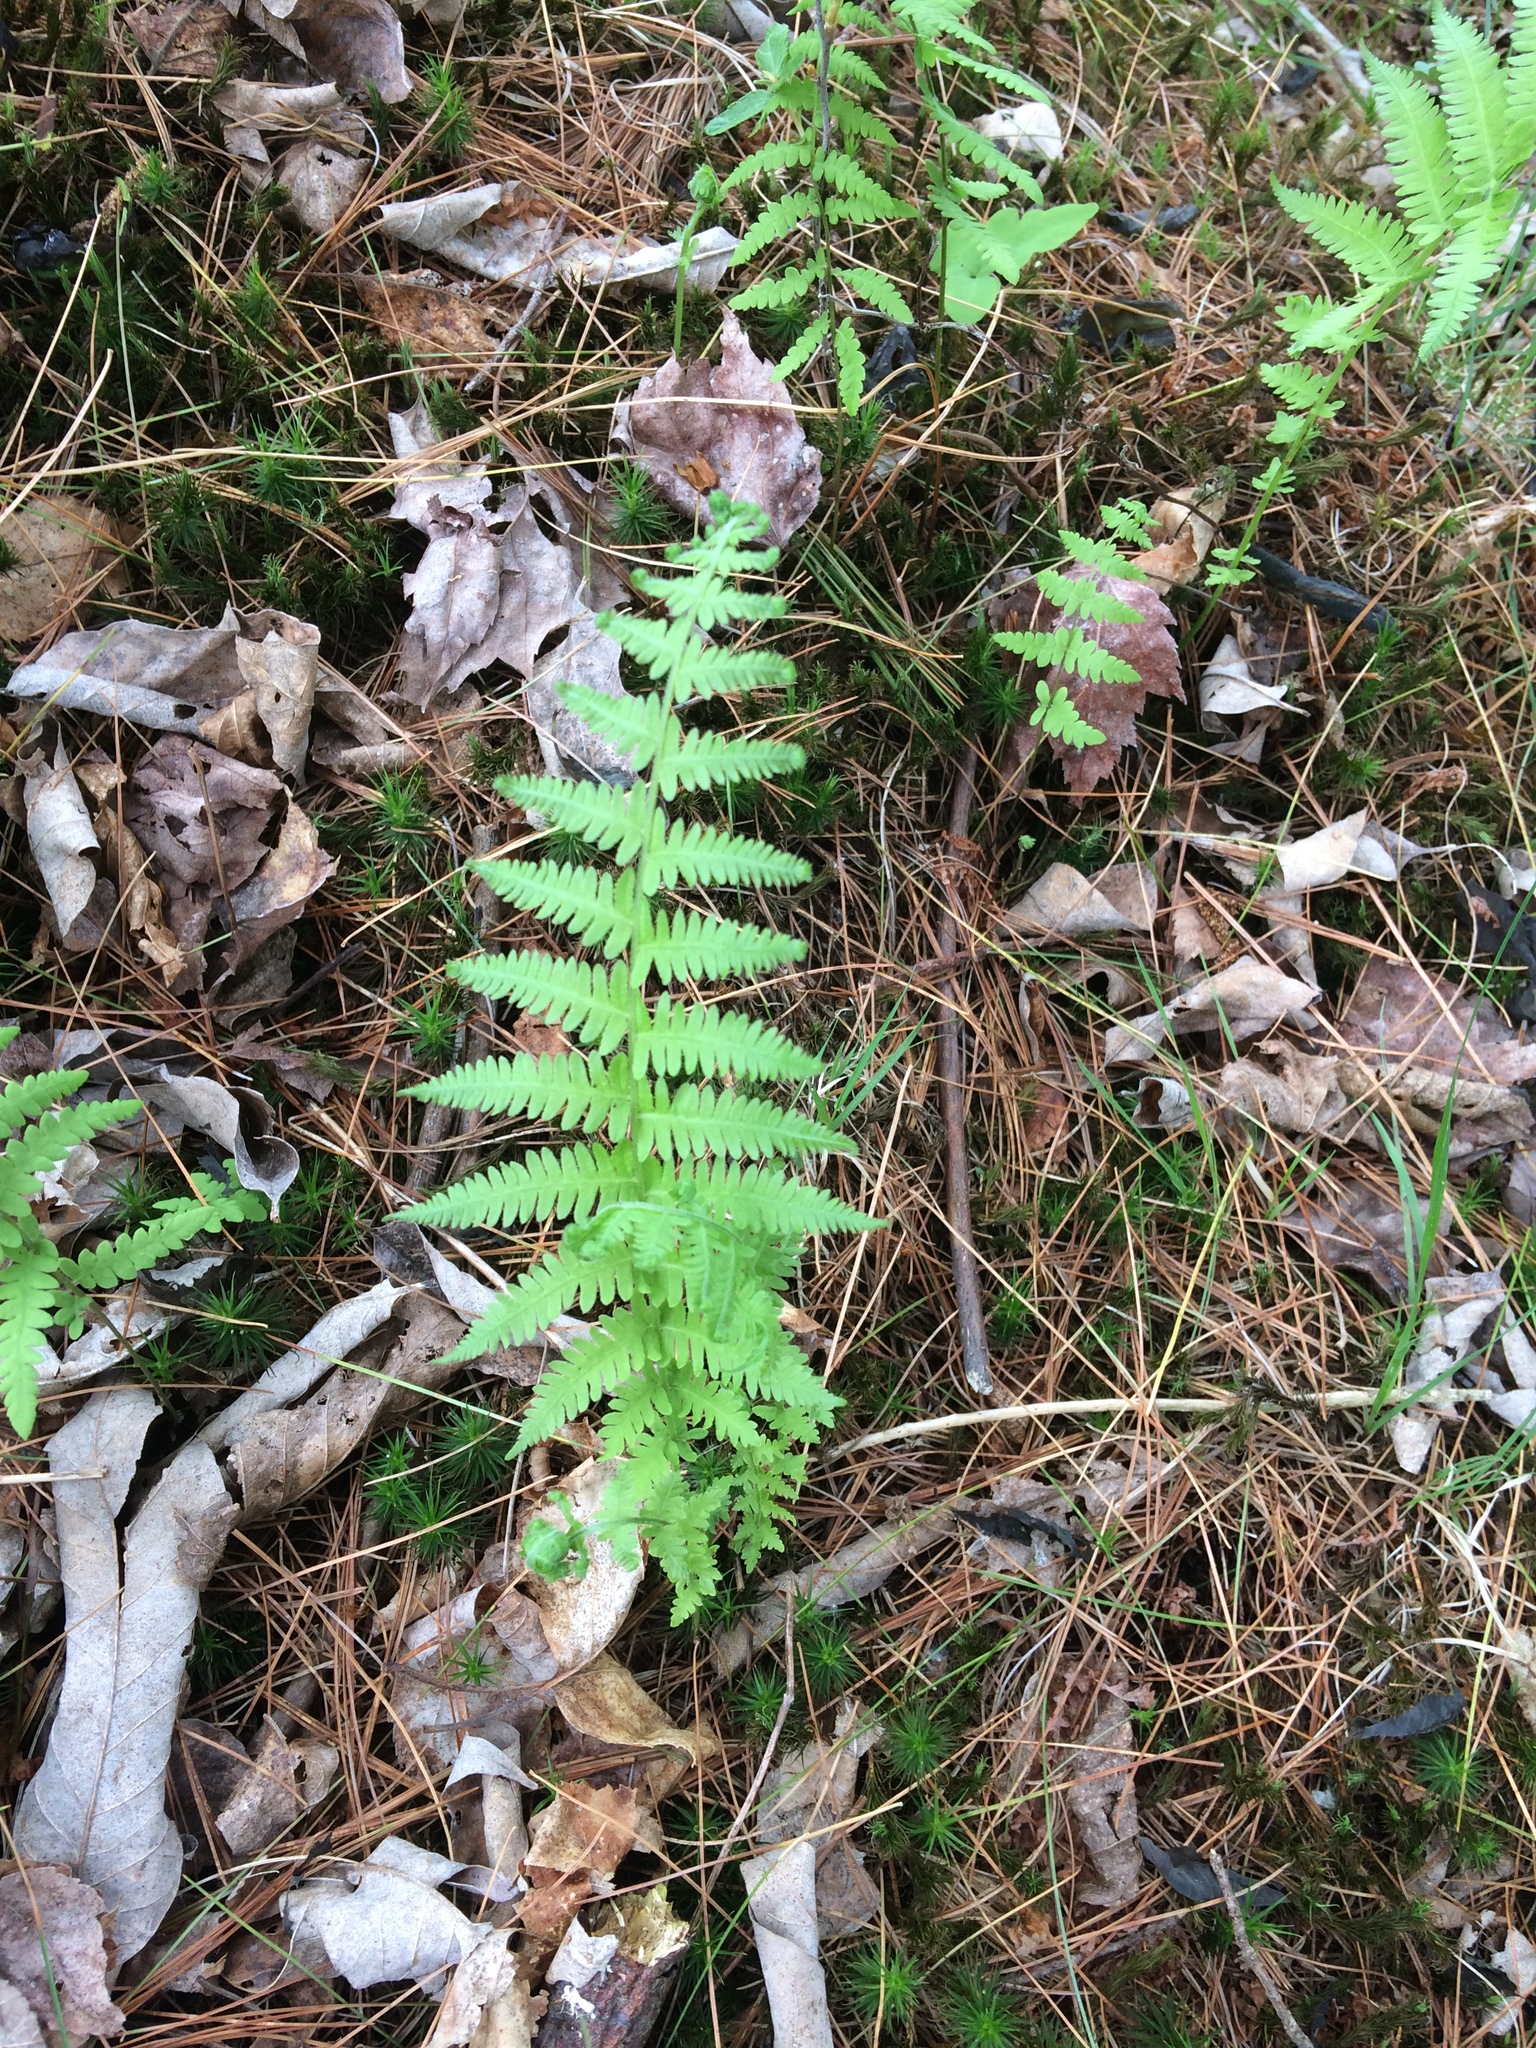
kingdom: Plantae
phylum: Tracheophyta
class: Polypodiopsida
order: Polypodiales
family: Thelypteridaceae
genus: Amauropelta
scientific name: Amauropelta noveboracensis
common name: New york fern
